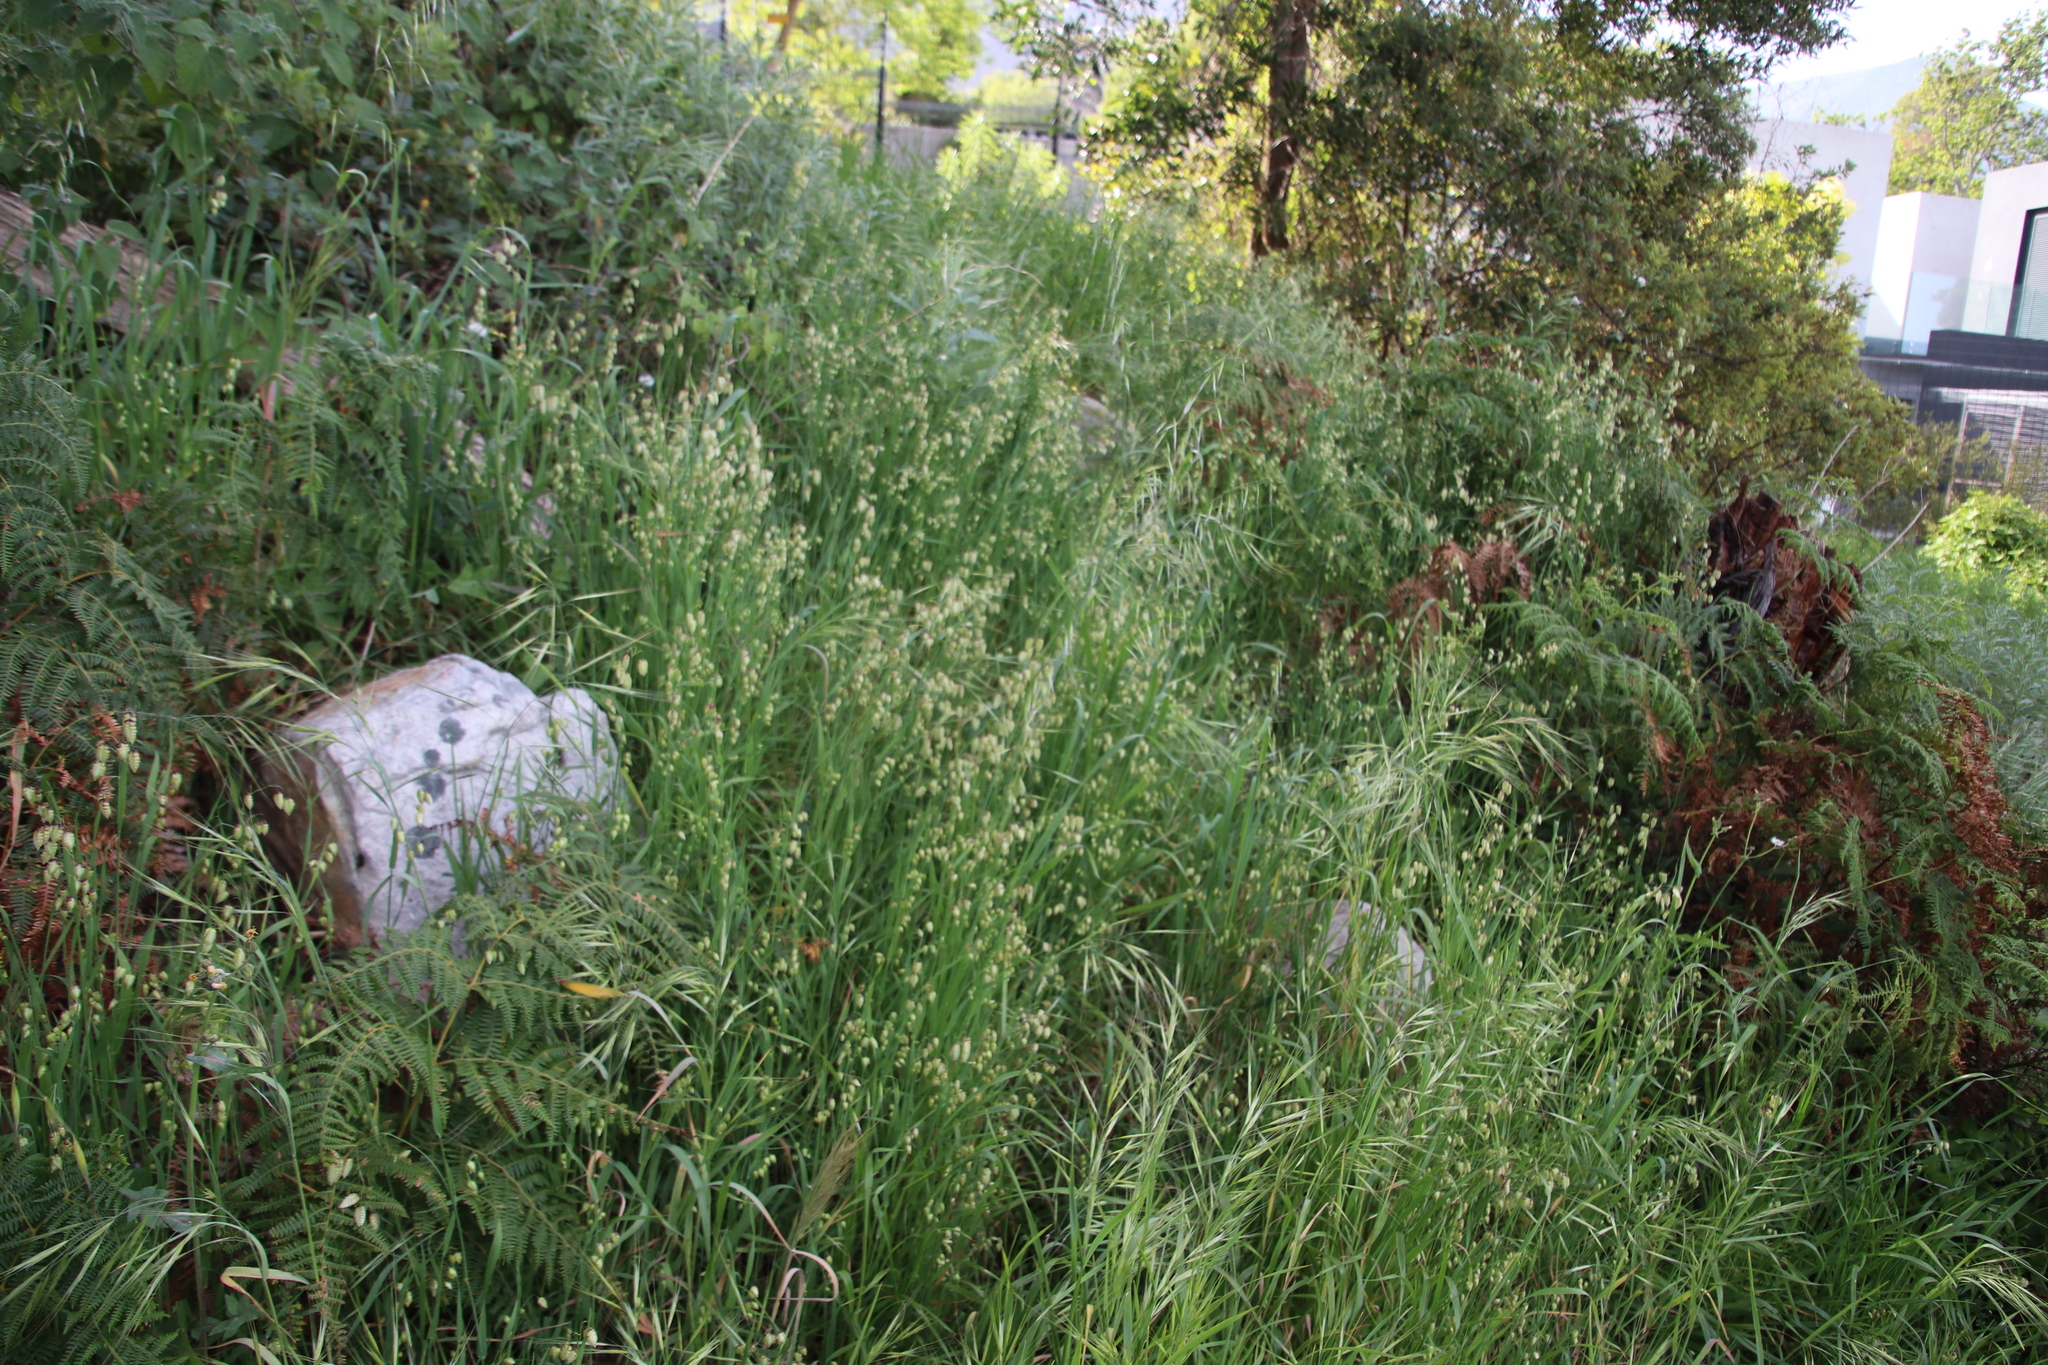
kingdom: Plantae
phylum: Tracheophyta
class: Liliopsida
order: Poales
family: Poaceae
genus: Briza
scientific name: Briza maxima
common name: Big quakinggrass
